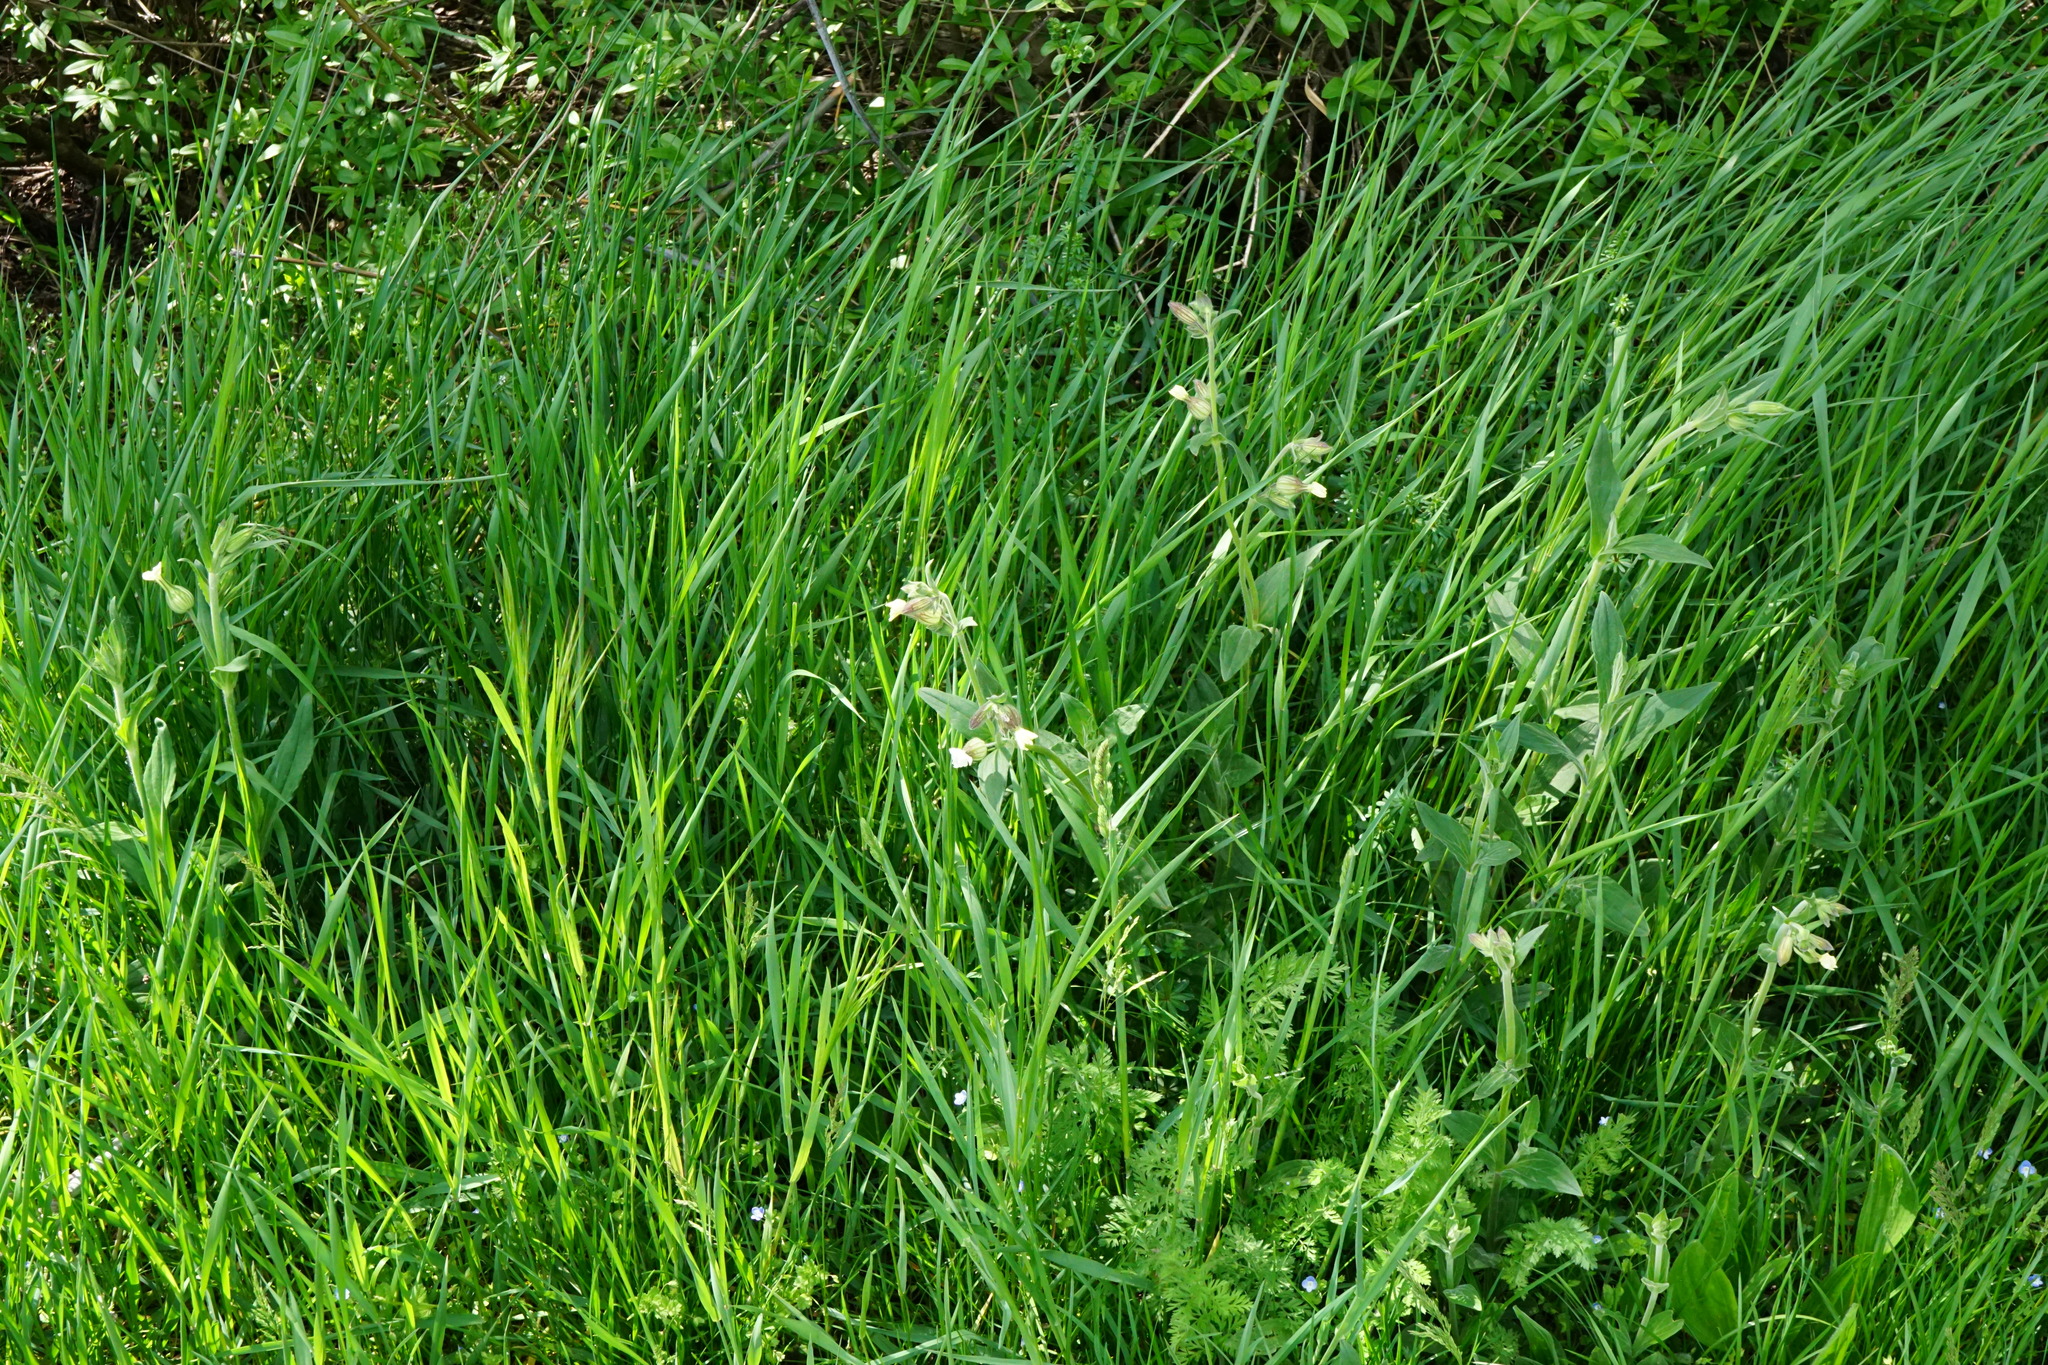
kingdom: Plantae
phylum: Tracheophyta
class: Magnoliopsida
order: Caryophyllales
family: Caryophyllaceae
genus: Silene
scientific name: Silene latifolia
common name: White campion
